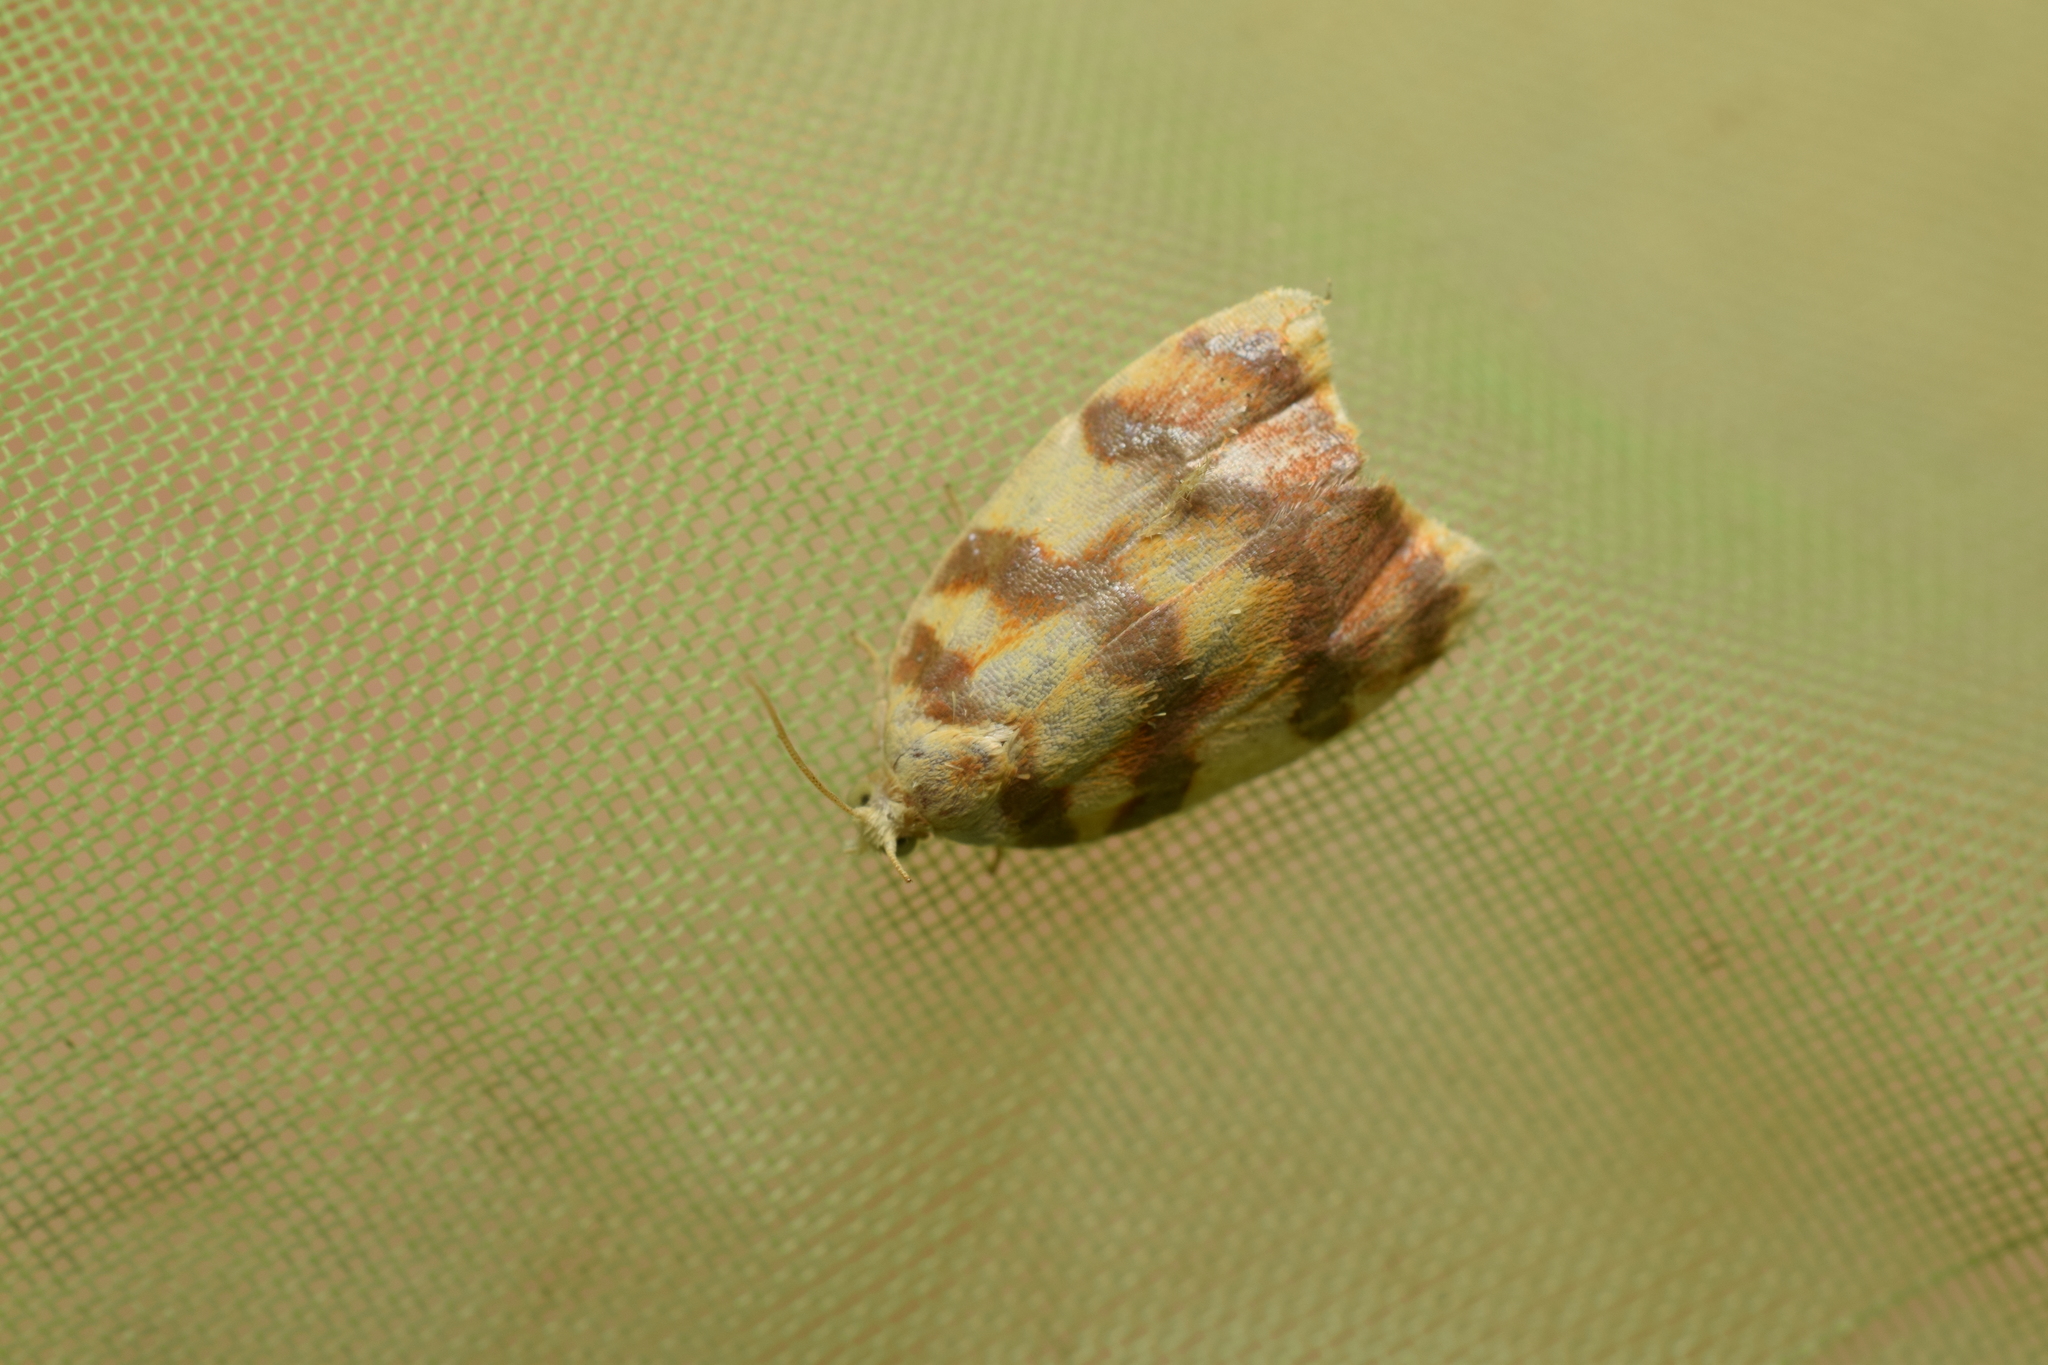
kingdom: Animalia
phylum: Arthropoda
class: Insecta
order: Lepidoptera
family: Tortricidae
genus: Acleris
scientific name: Acleris leechi
